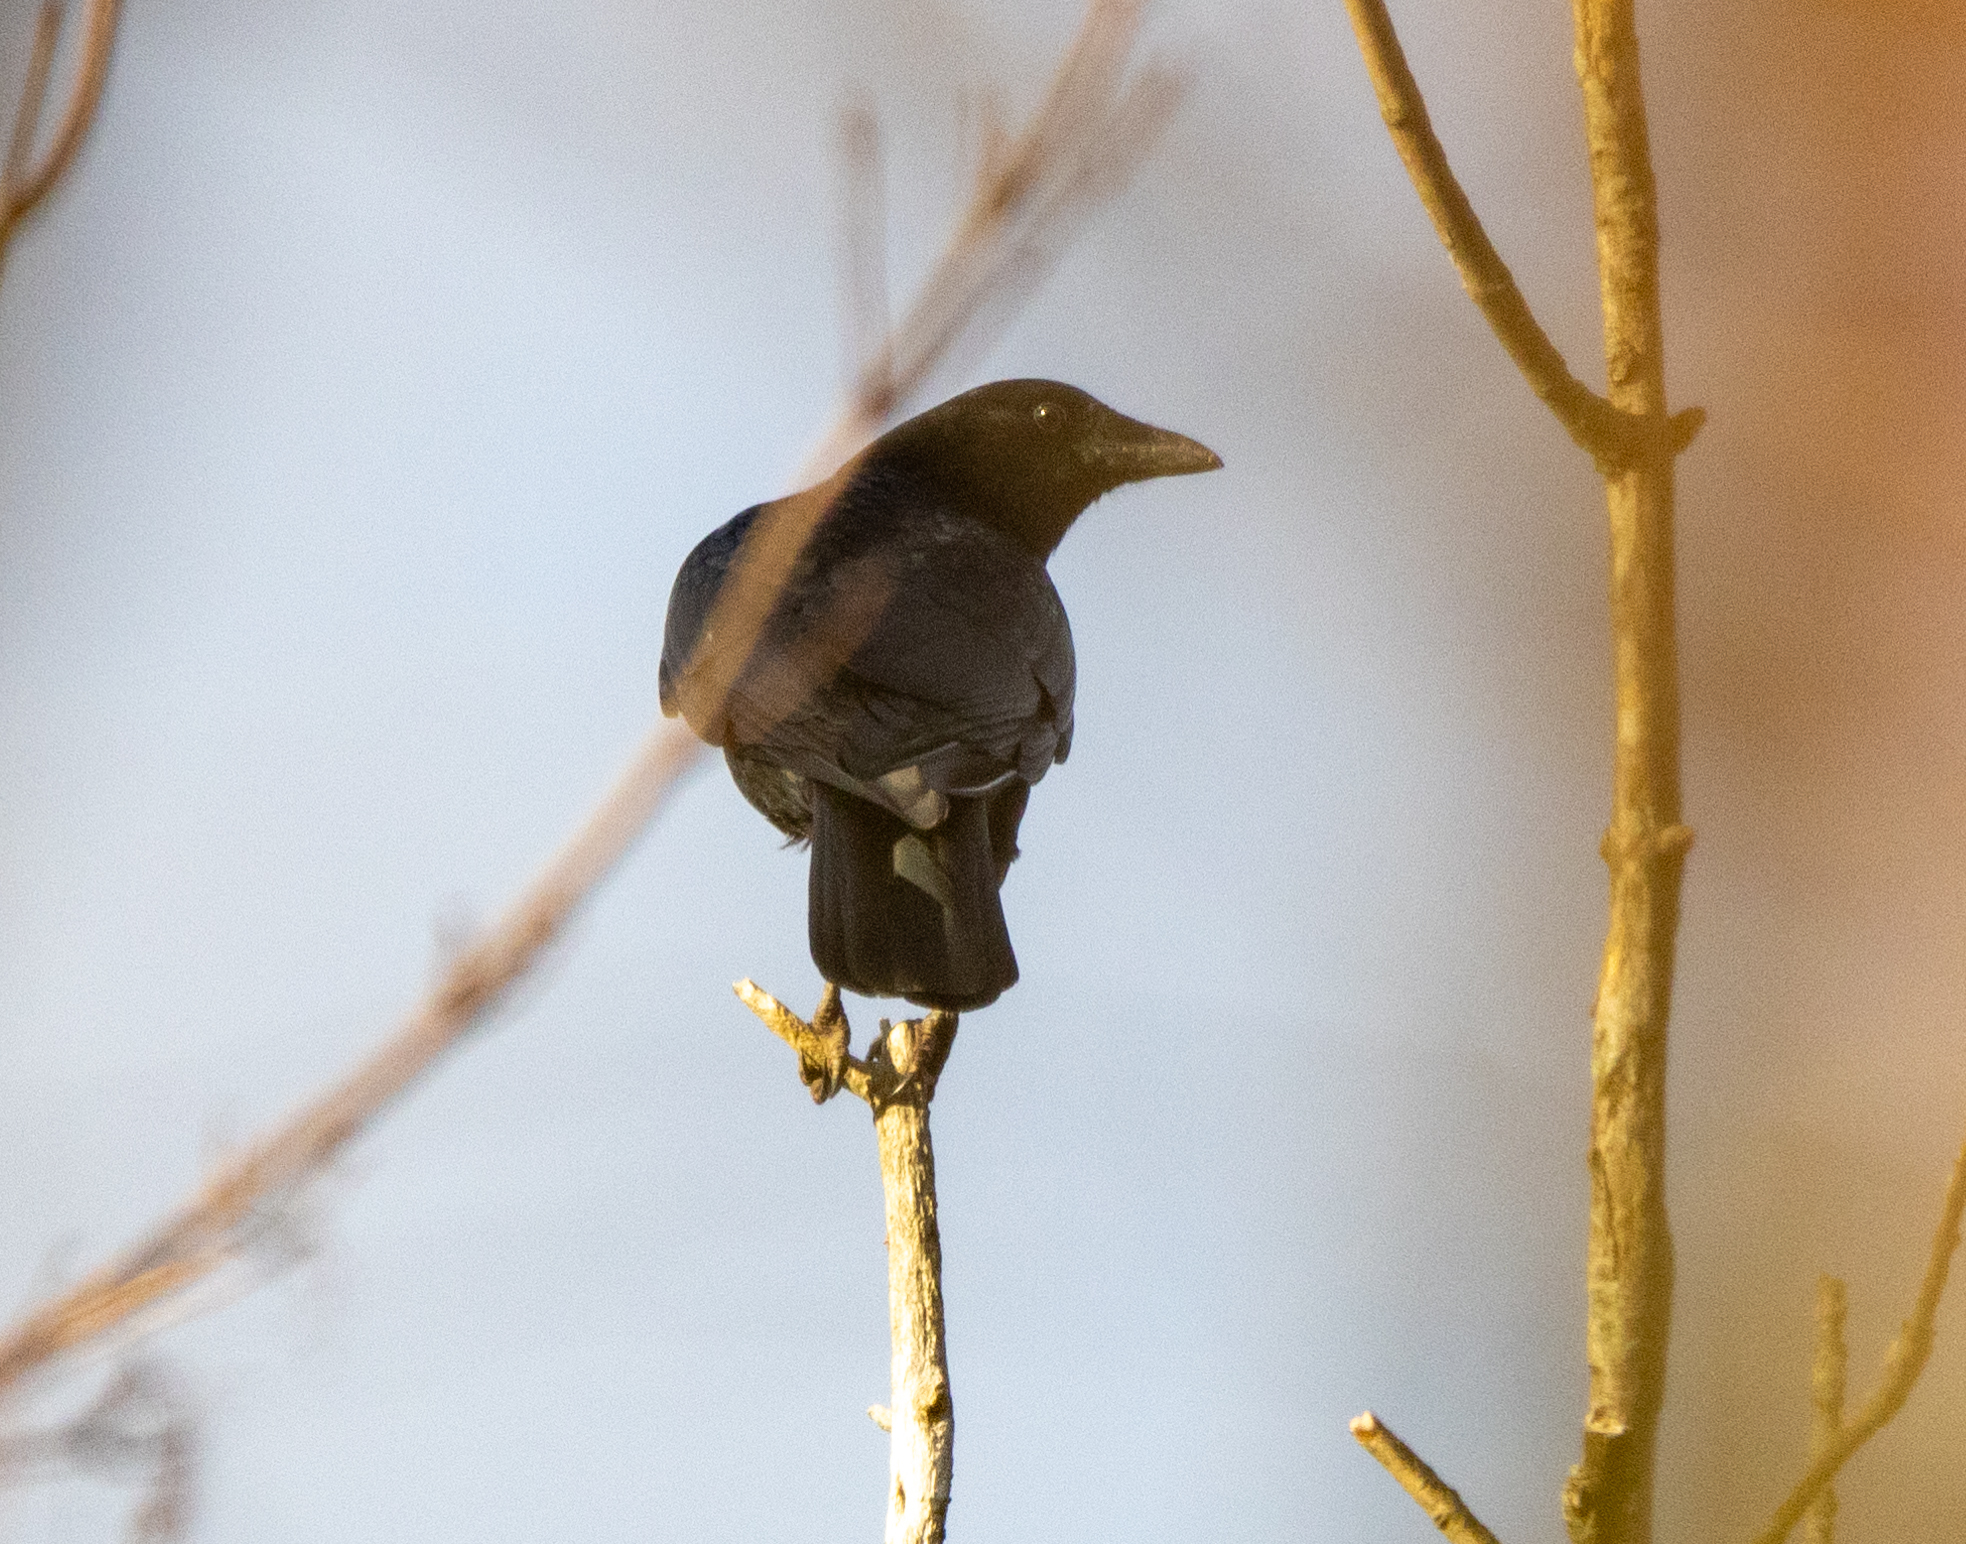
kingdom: Animalia
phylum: Chordata
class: Aves
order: Passeriformes
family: Corvidae
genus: Corvus
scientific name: Corvus brachyrhynchos
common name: American crow
